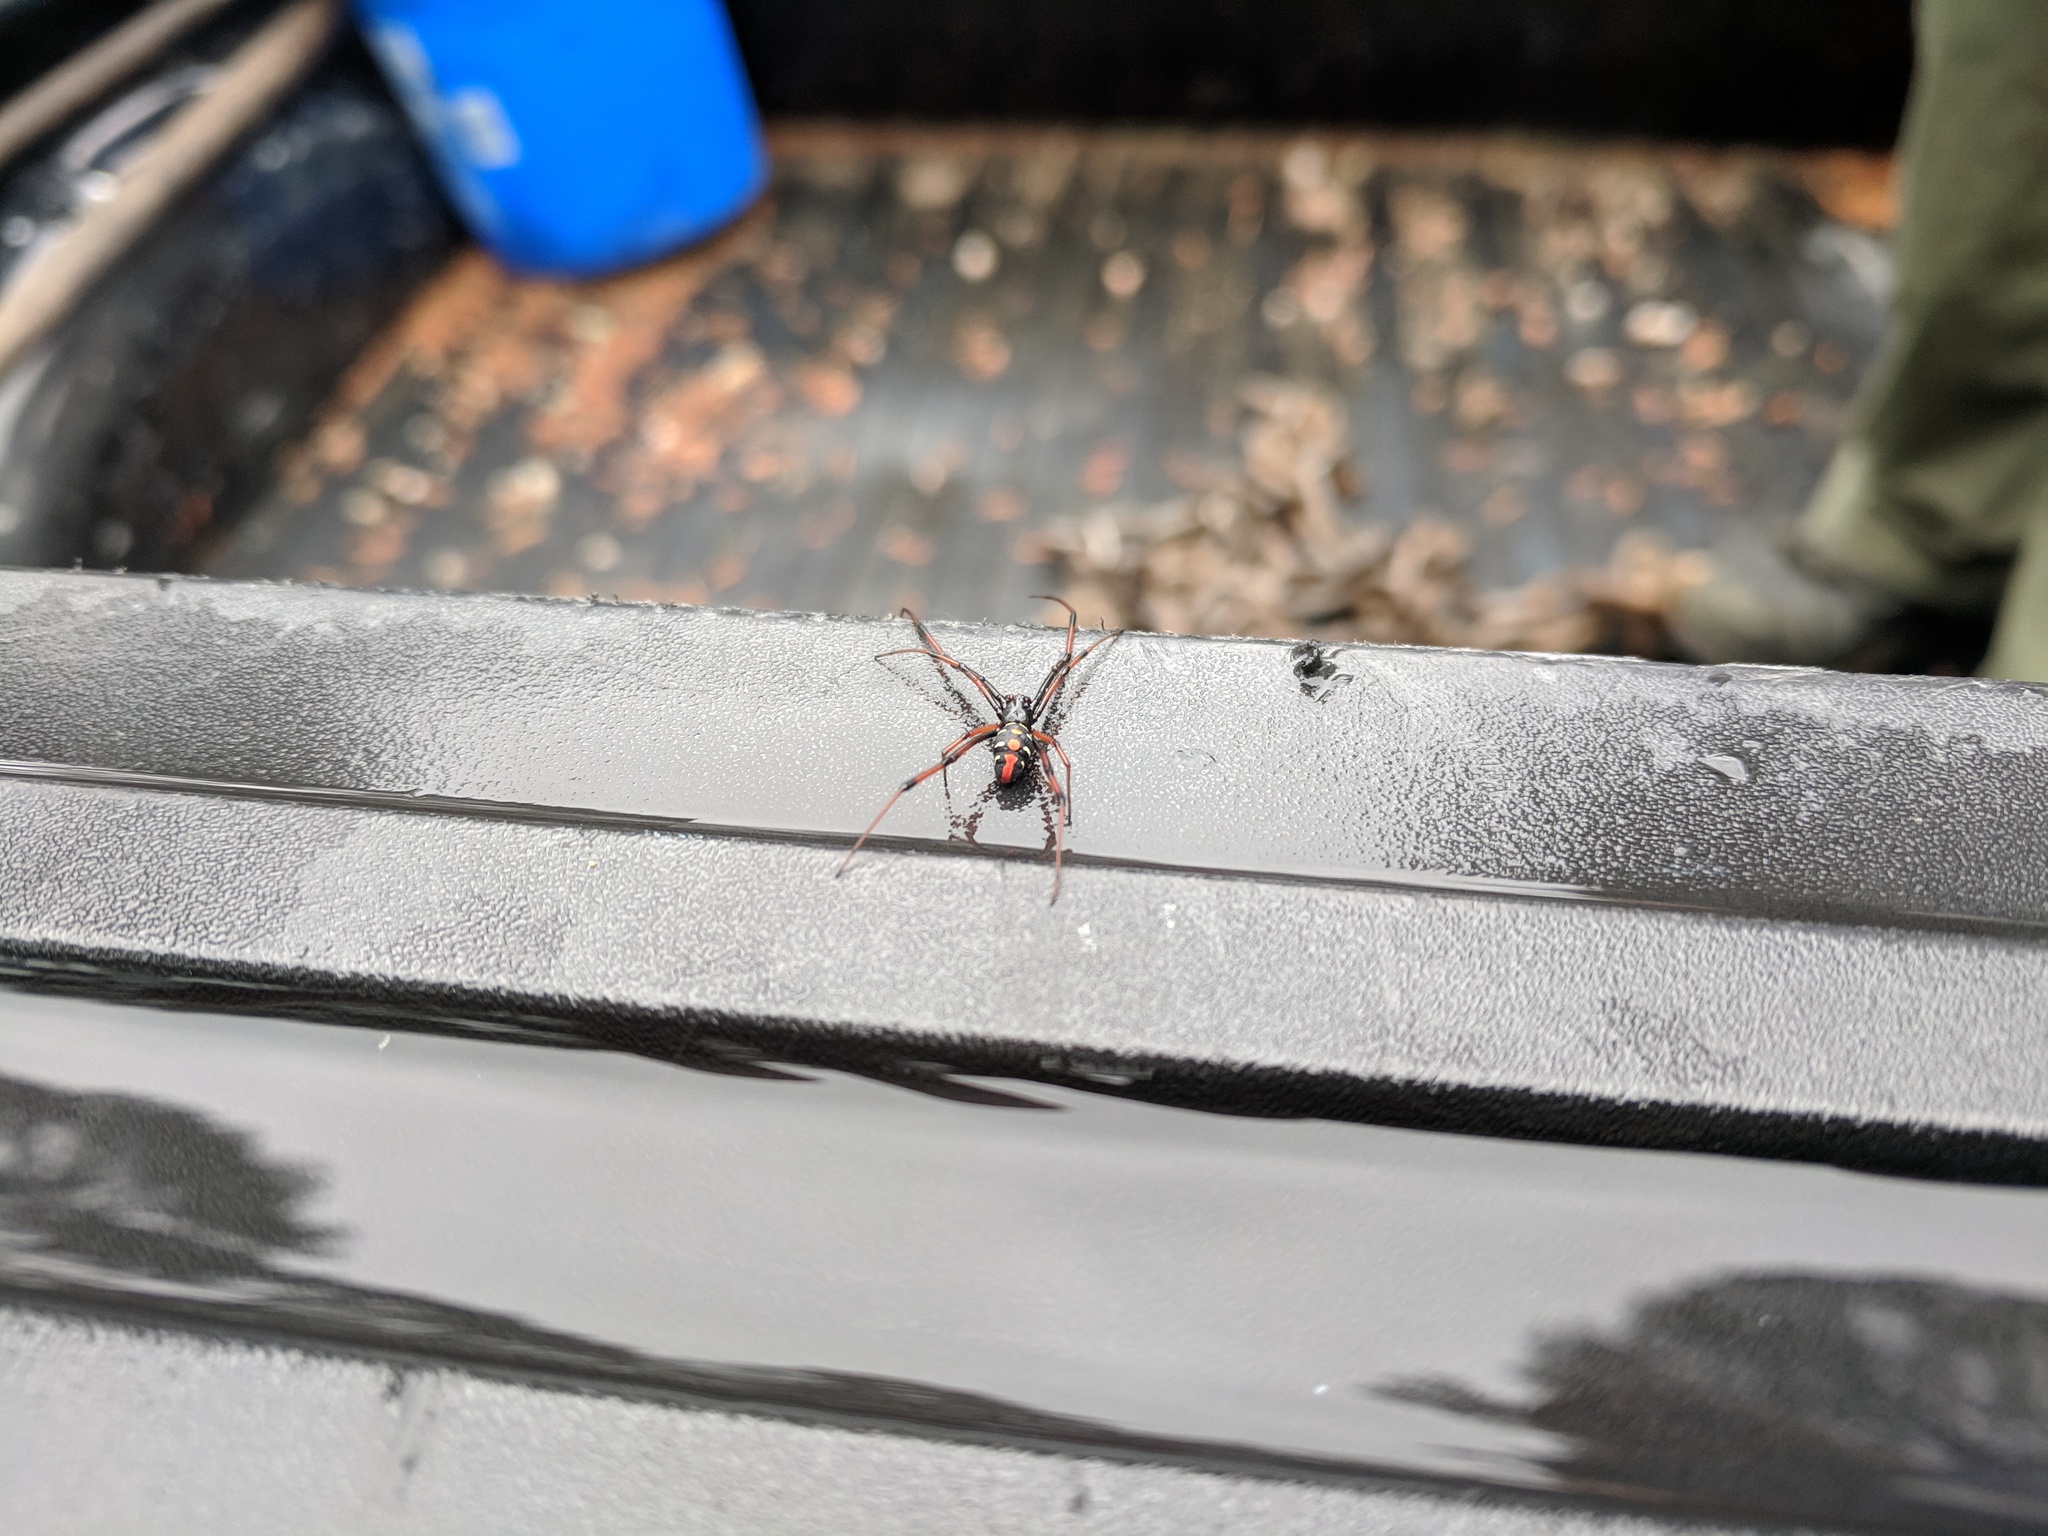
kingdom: Animalia
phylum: Arthropoda
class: Arachnida
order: Araneae
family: Theridiidae
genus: Latrodectus
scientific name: Latrodectus variolus
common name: Northern black widow
